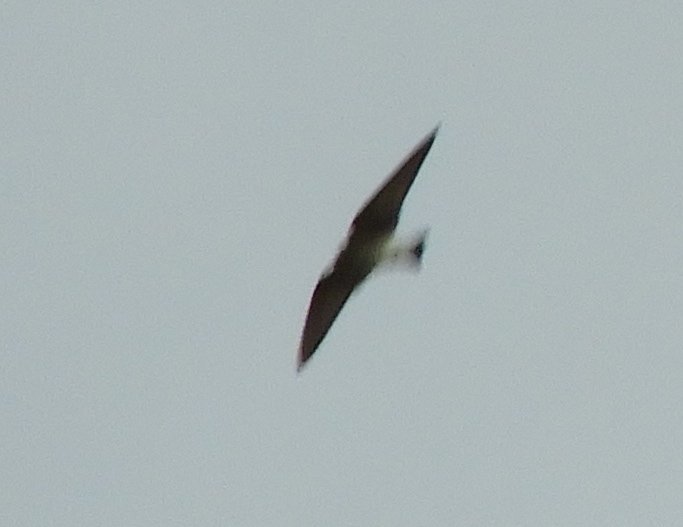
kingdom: Animalia
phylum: Chordata
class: Aves
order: Passeriformes
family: Hirundinidae
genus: Progne
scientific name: Progne
